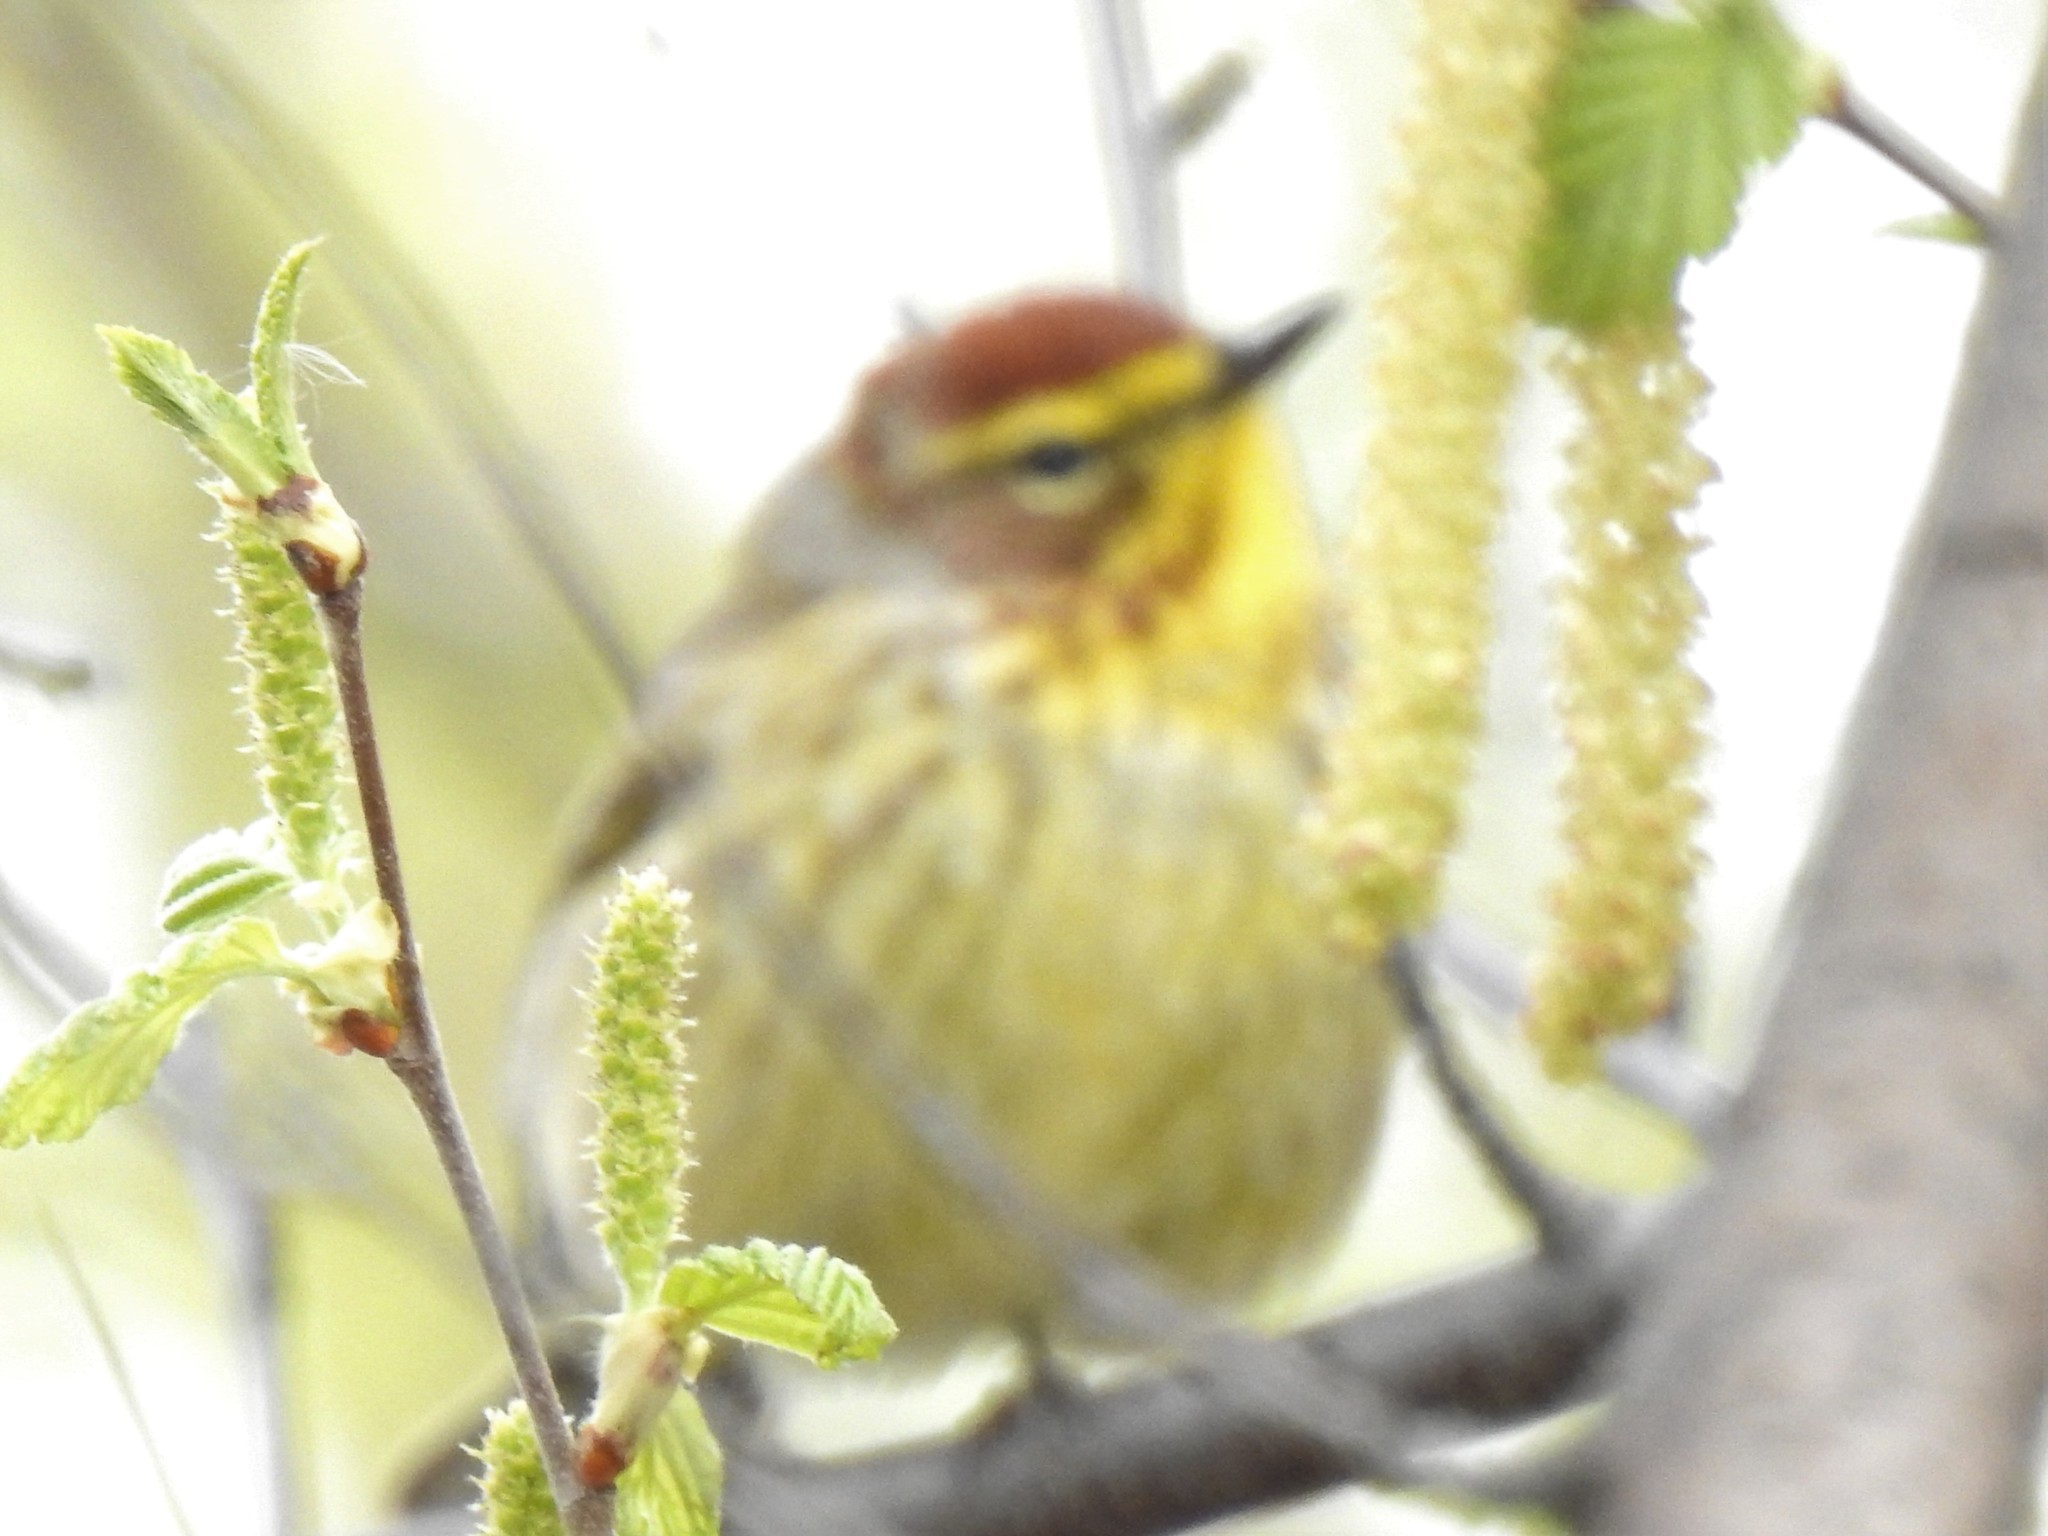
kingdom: Animalia
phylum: Chordata
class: Aves
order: Passeriformes
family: Parulidae
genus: Setophaga
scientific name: Setophaga palmarum
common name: Palm warbler
